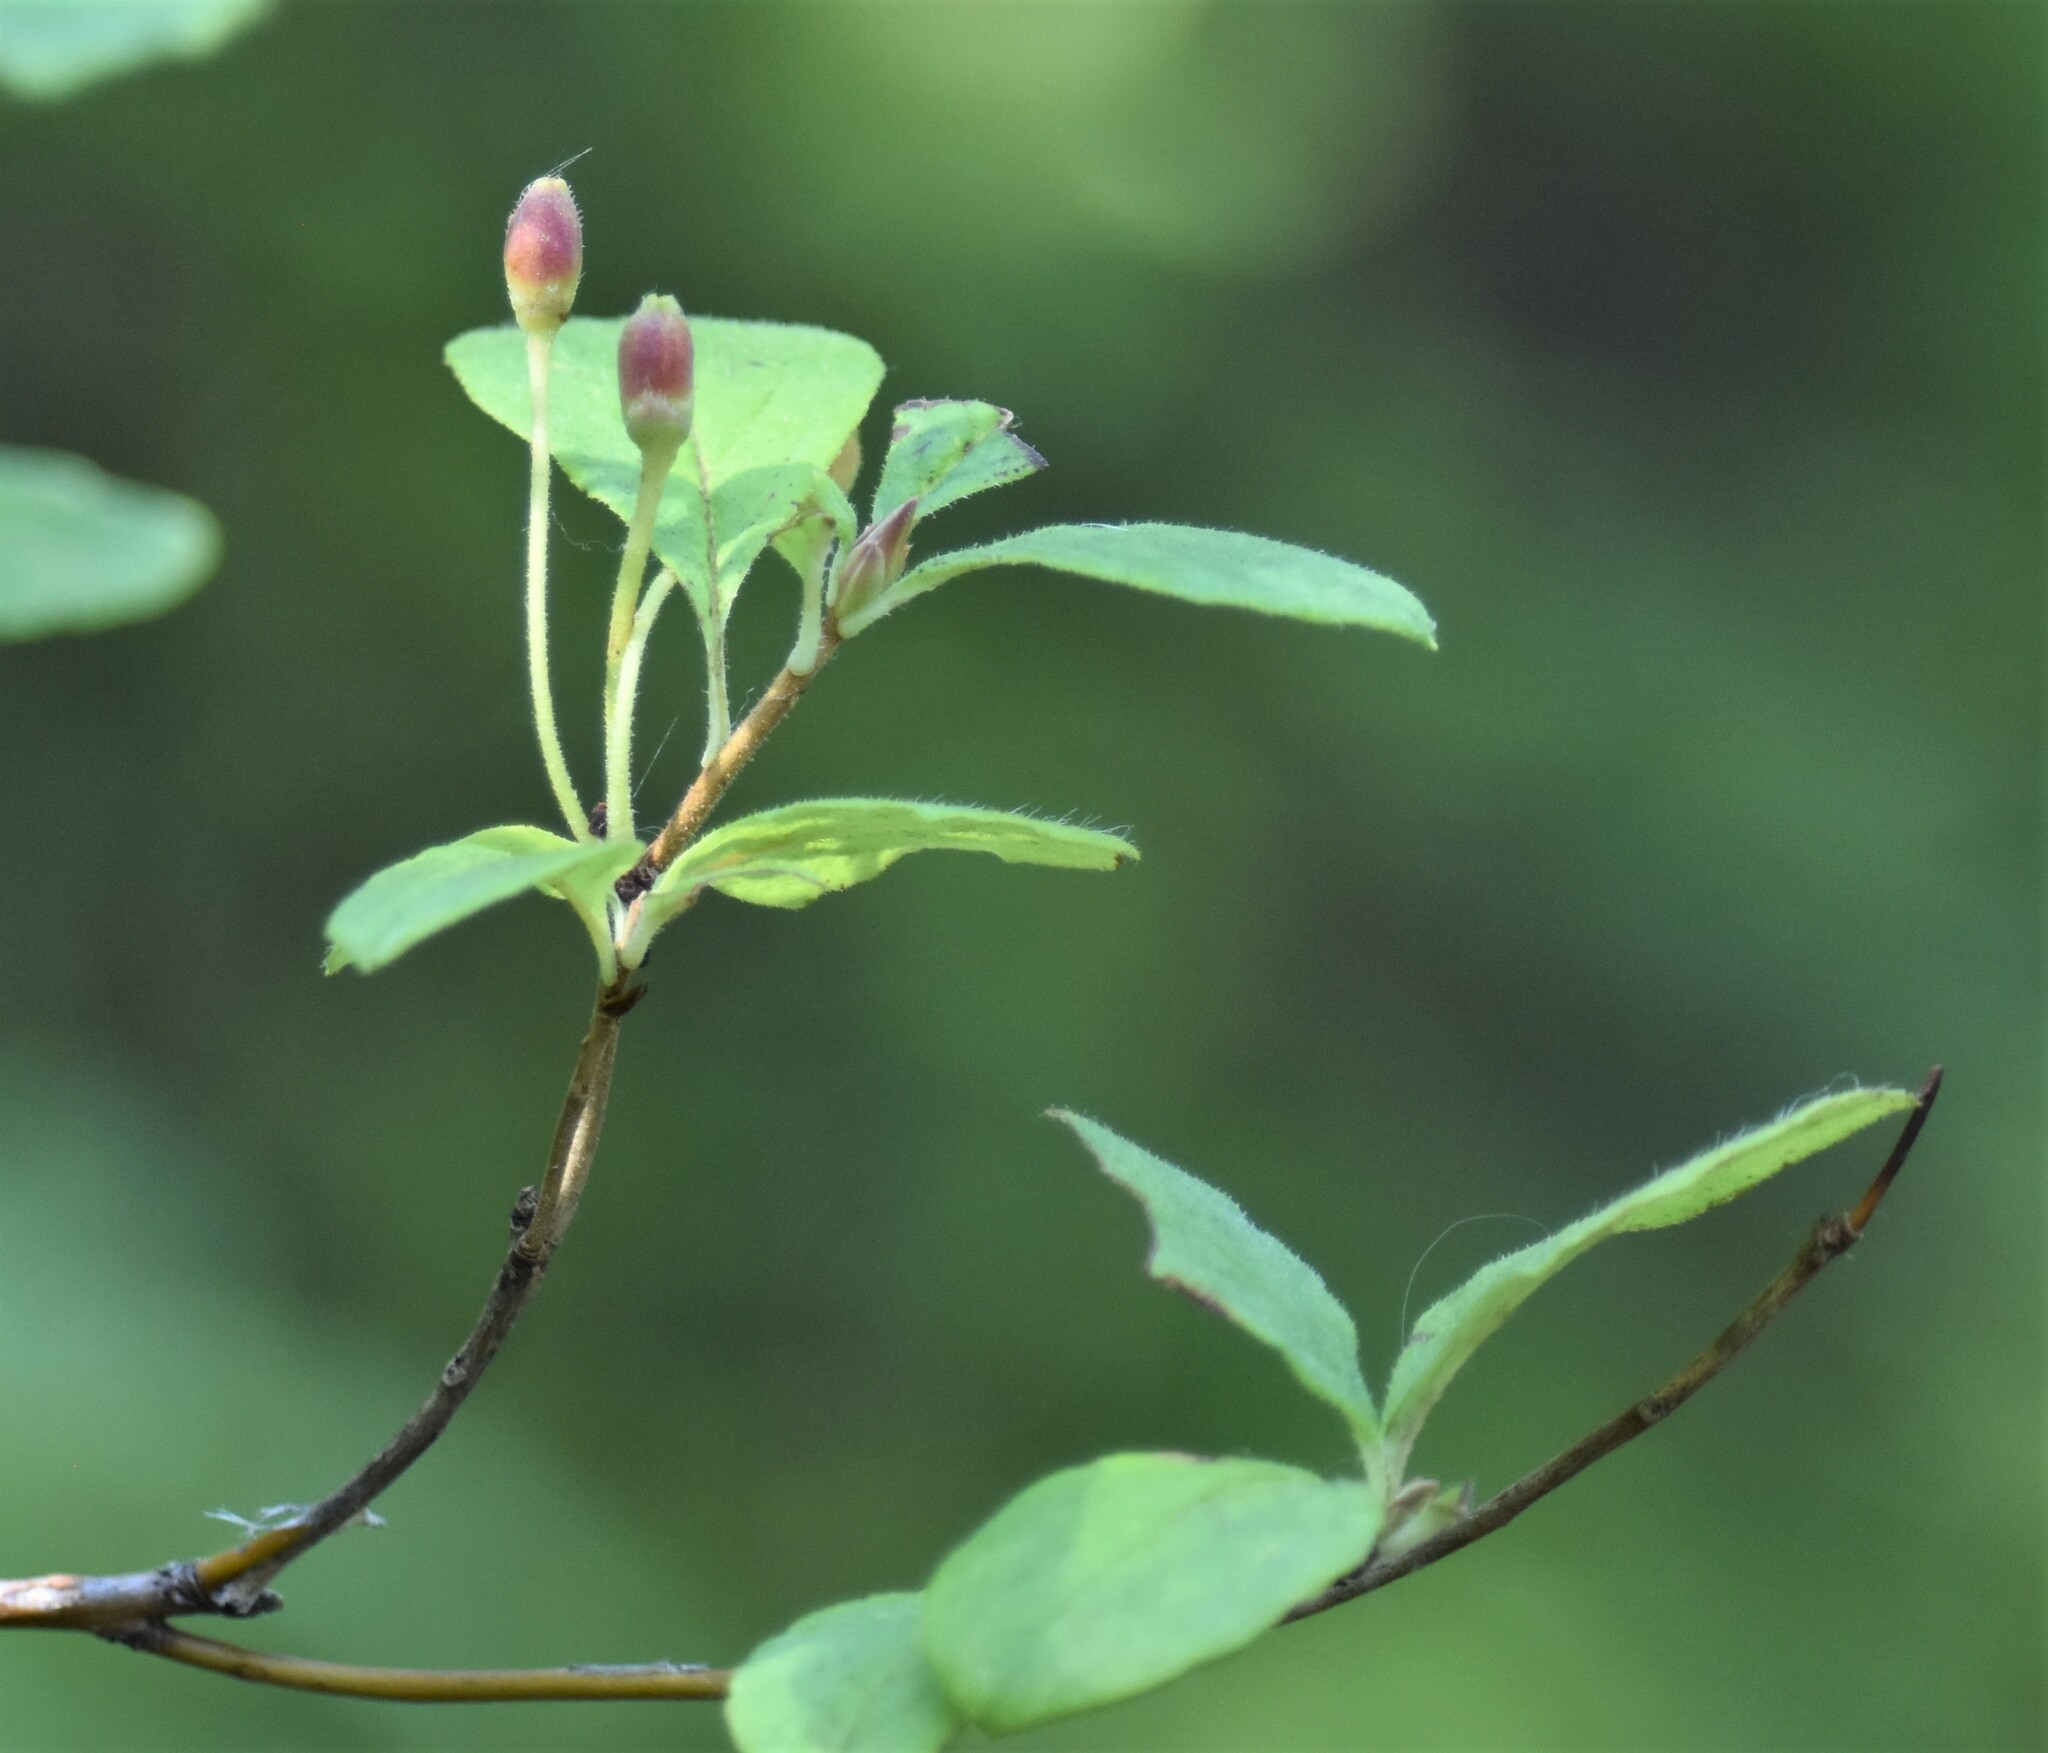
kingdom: Plantae
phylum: Tracheophyta
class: Magnoliopsida
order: Ericales
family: Ericaceae
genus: Rhododendron
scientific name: Rhododendron menziesii
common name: Pacific menziesia
